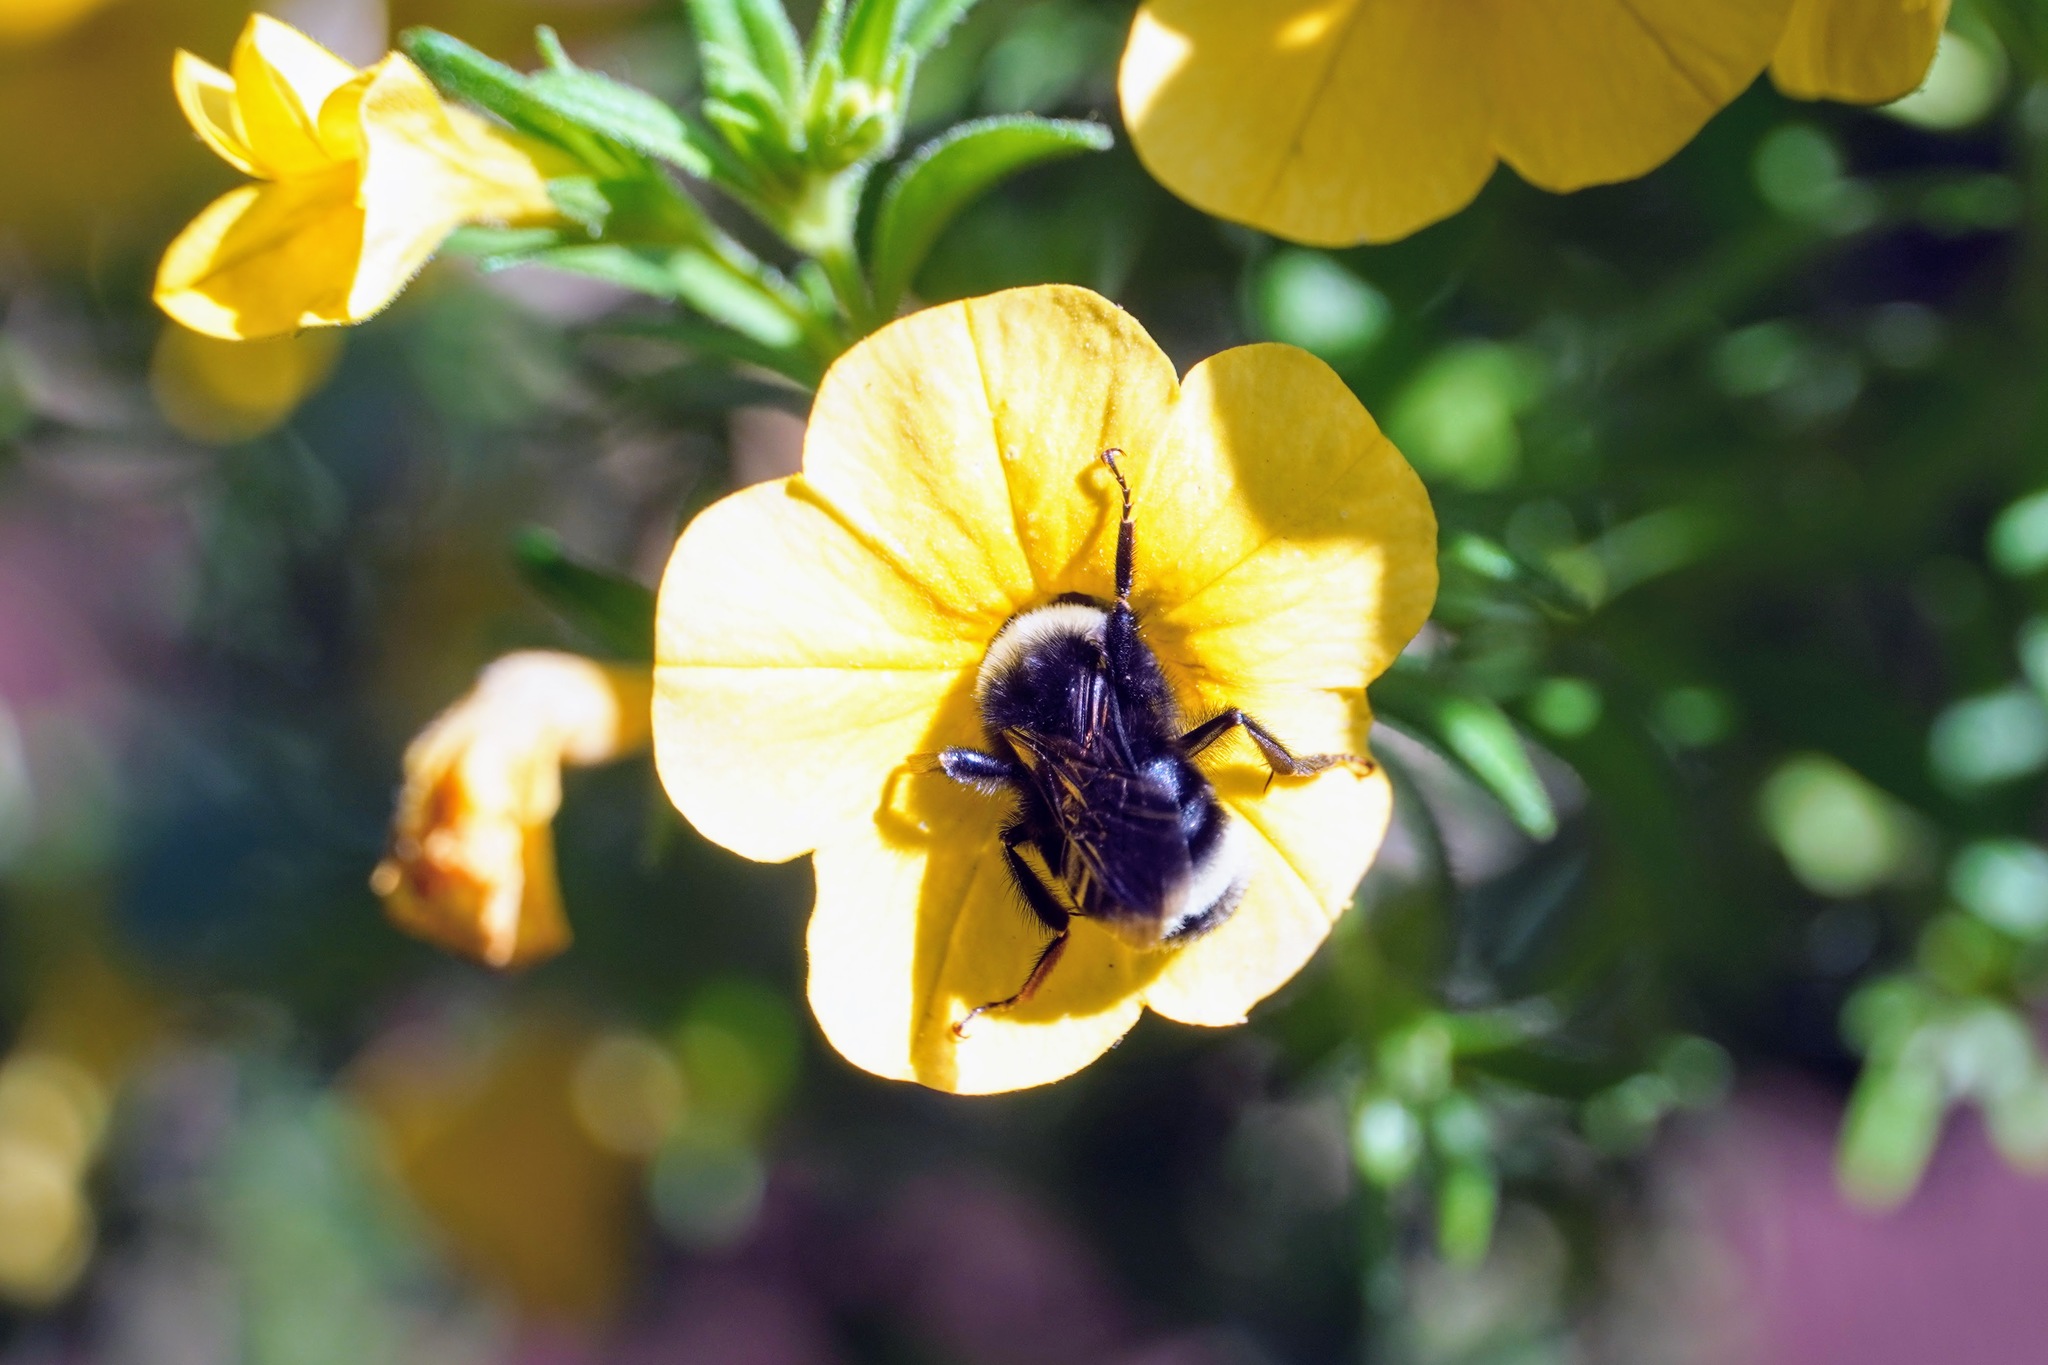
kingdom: Animalia
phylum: Arthropoda
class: Insecta
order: Hymenoptera
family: Apidae
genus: Bombus
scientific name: Bombus vosnesenskii
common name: Vosnesensky bumble bee
